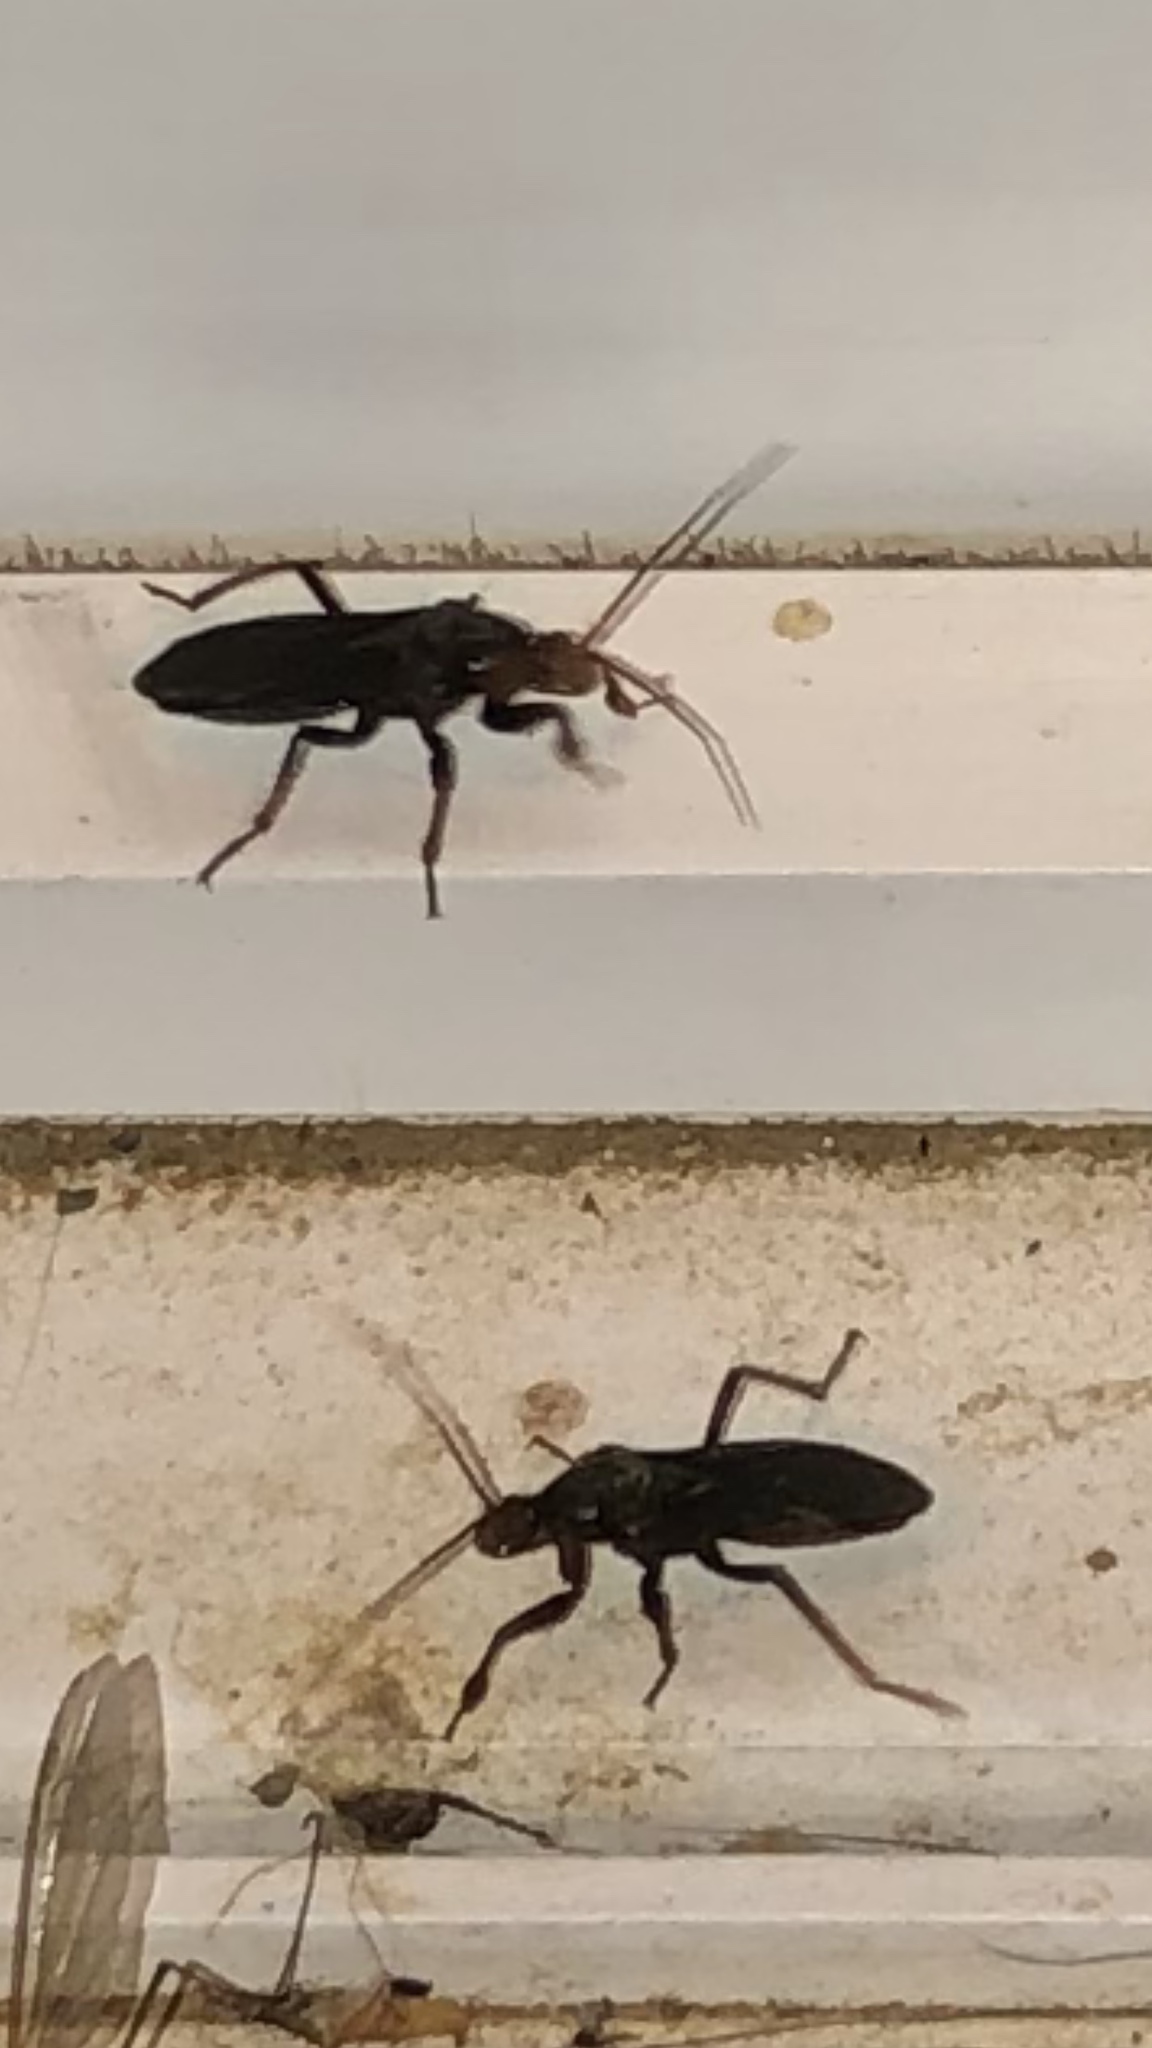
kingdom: Animalia
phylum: Arthropoda
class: Insecta
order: Hemiptera
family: Reduviidae
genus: Melanolestes
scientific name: Melanolestes picipes
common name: Assassin bug
